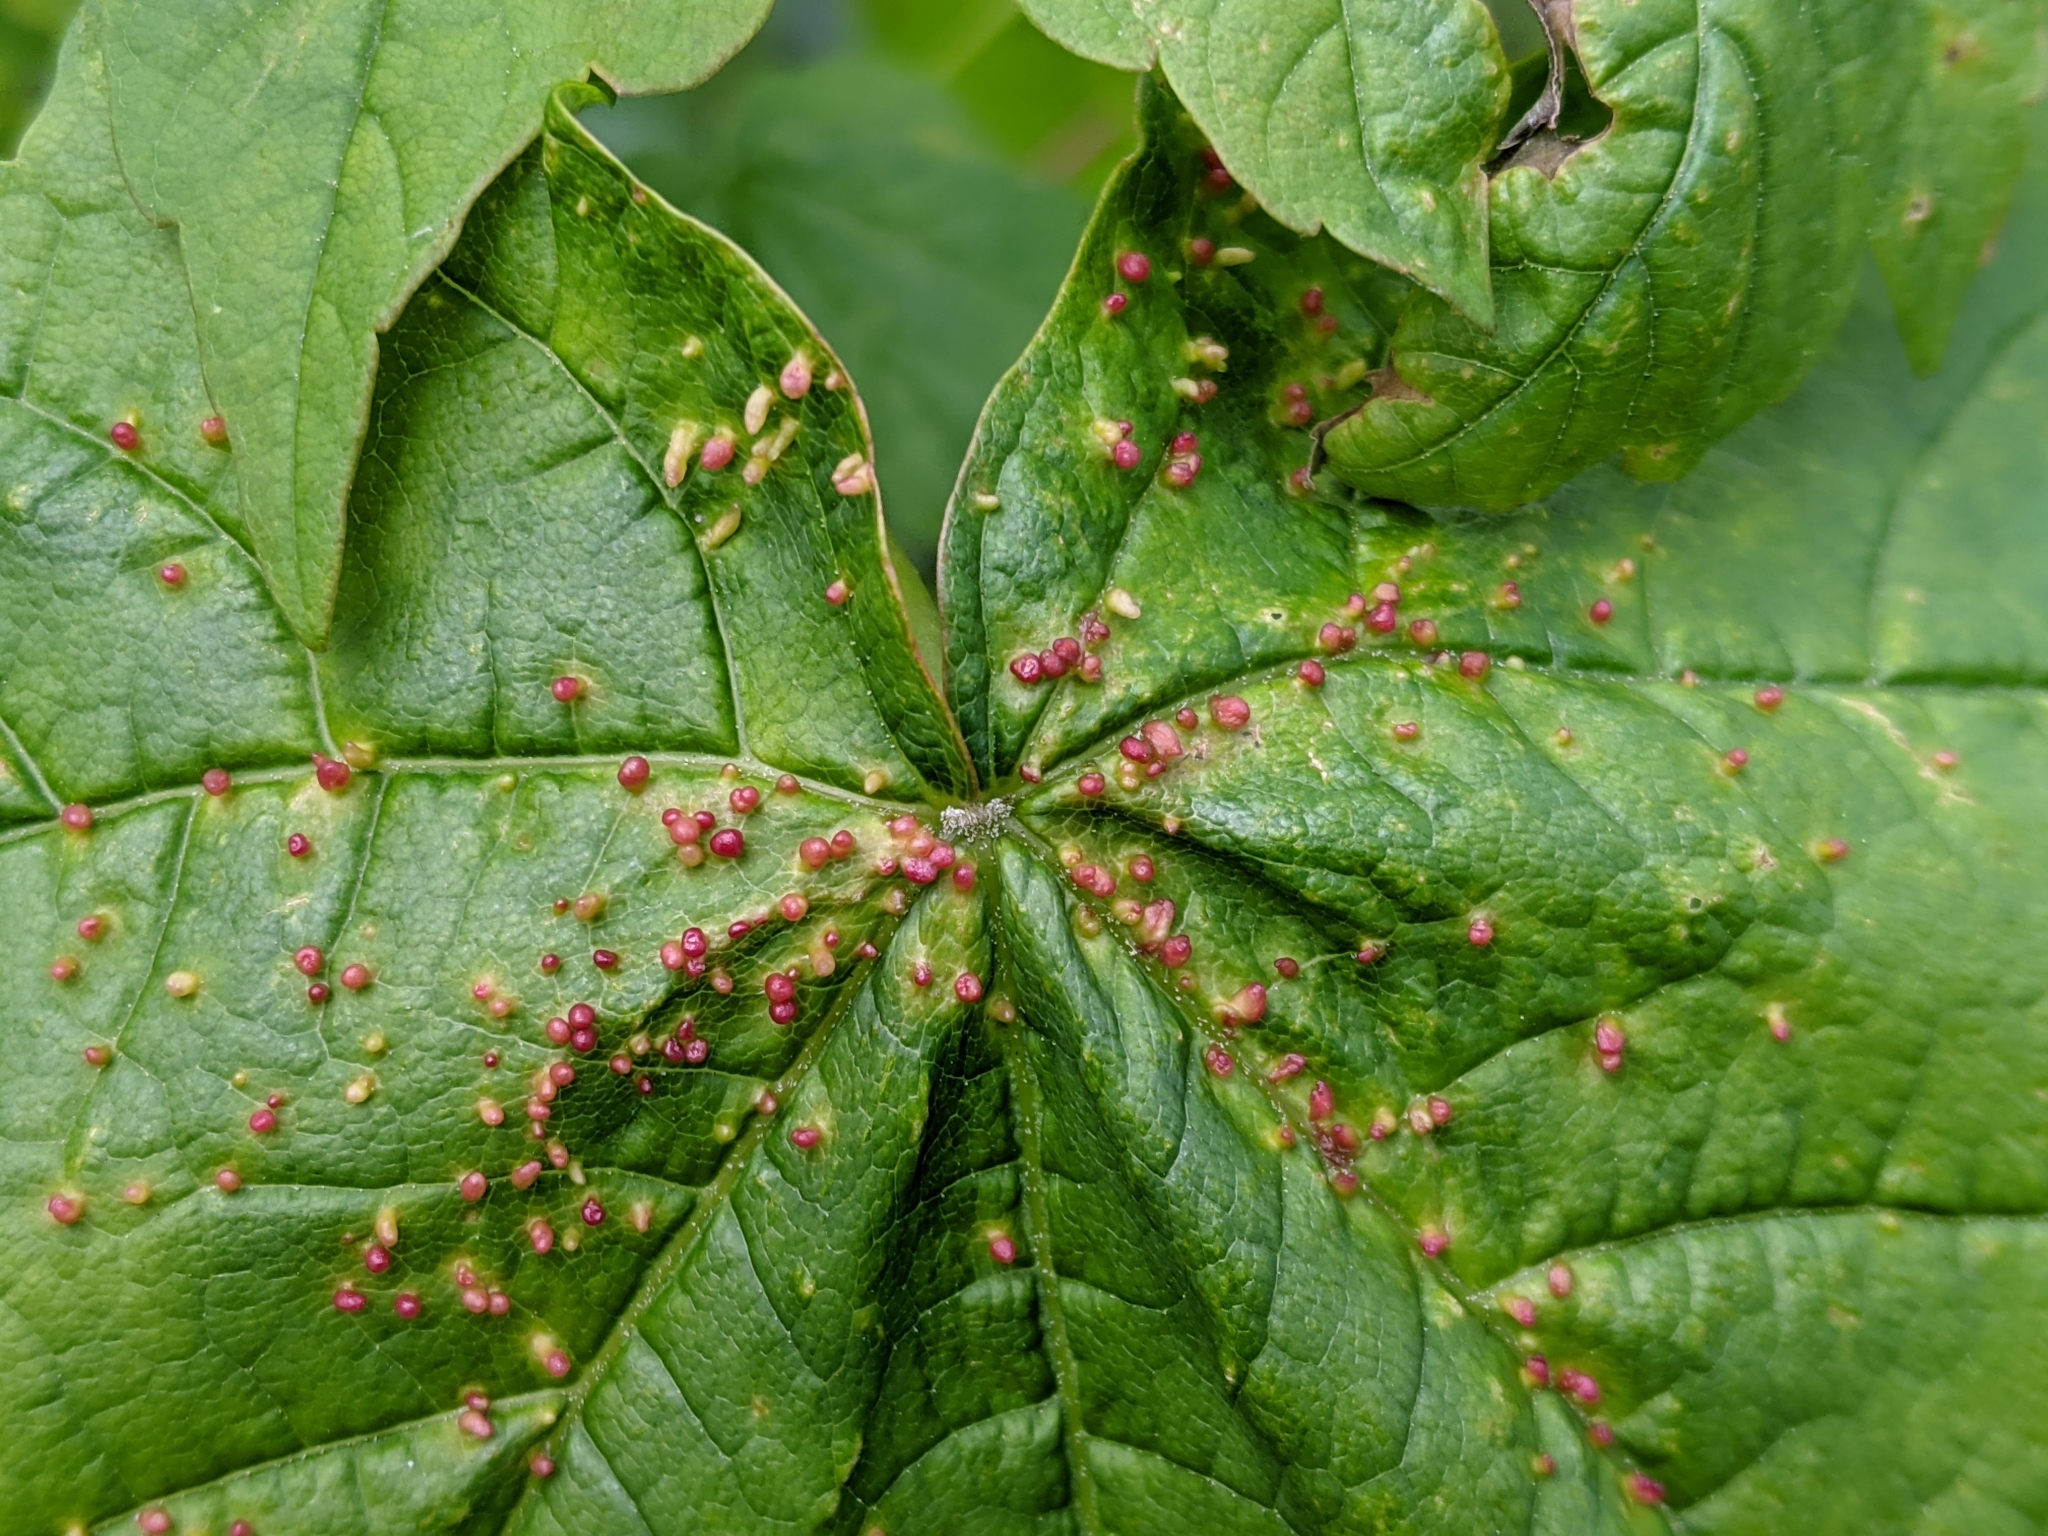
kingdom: Animalia
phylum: Arthropoda
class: Arachnida
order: Trombidiformes
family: Eriophyidae
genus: Aceria
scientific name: Aceria cephaloneus
